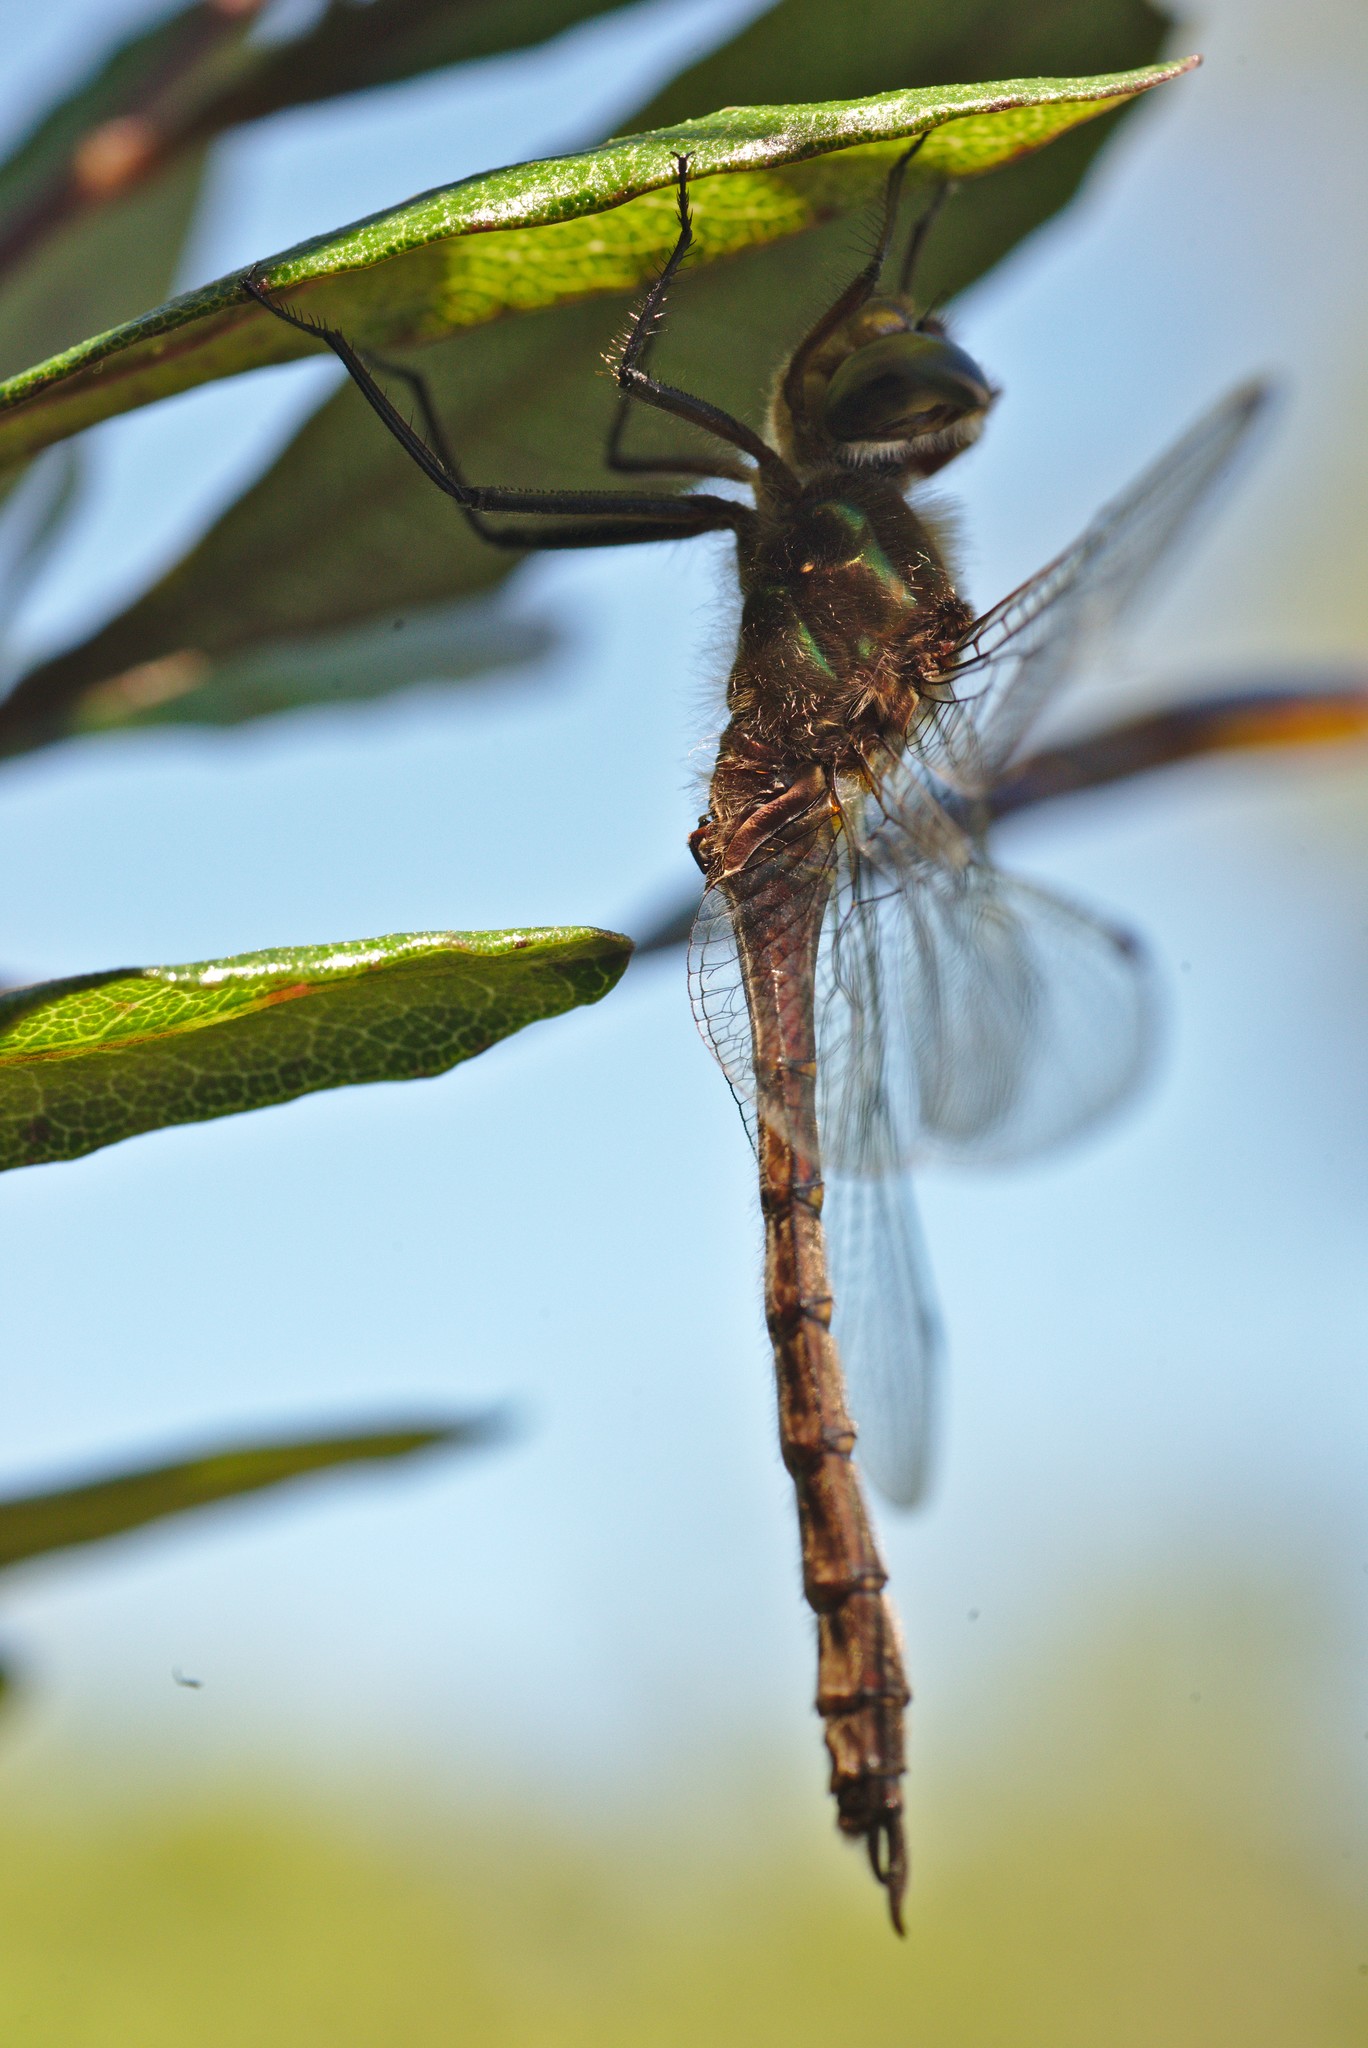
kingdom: Animalia
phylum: Arthropoda
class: Insecta
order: Odonata
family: Corduliidae
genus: Procordulia
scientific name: Procordulia smithii
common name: Ranger dragonfly
